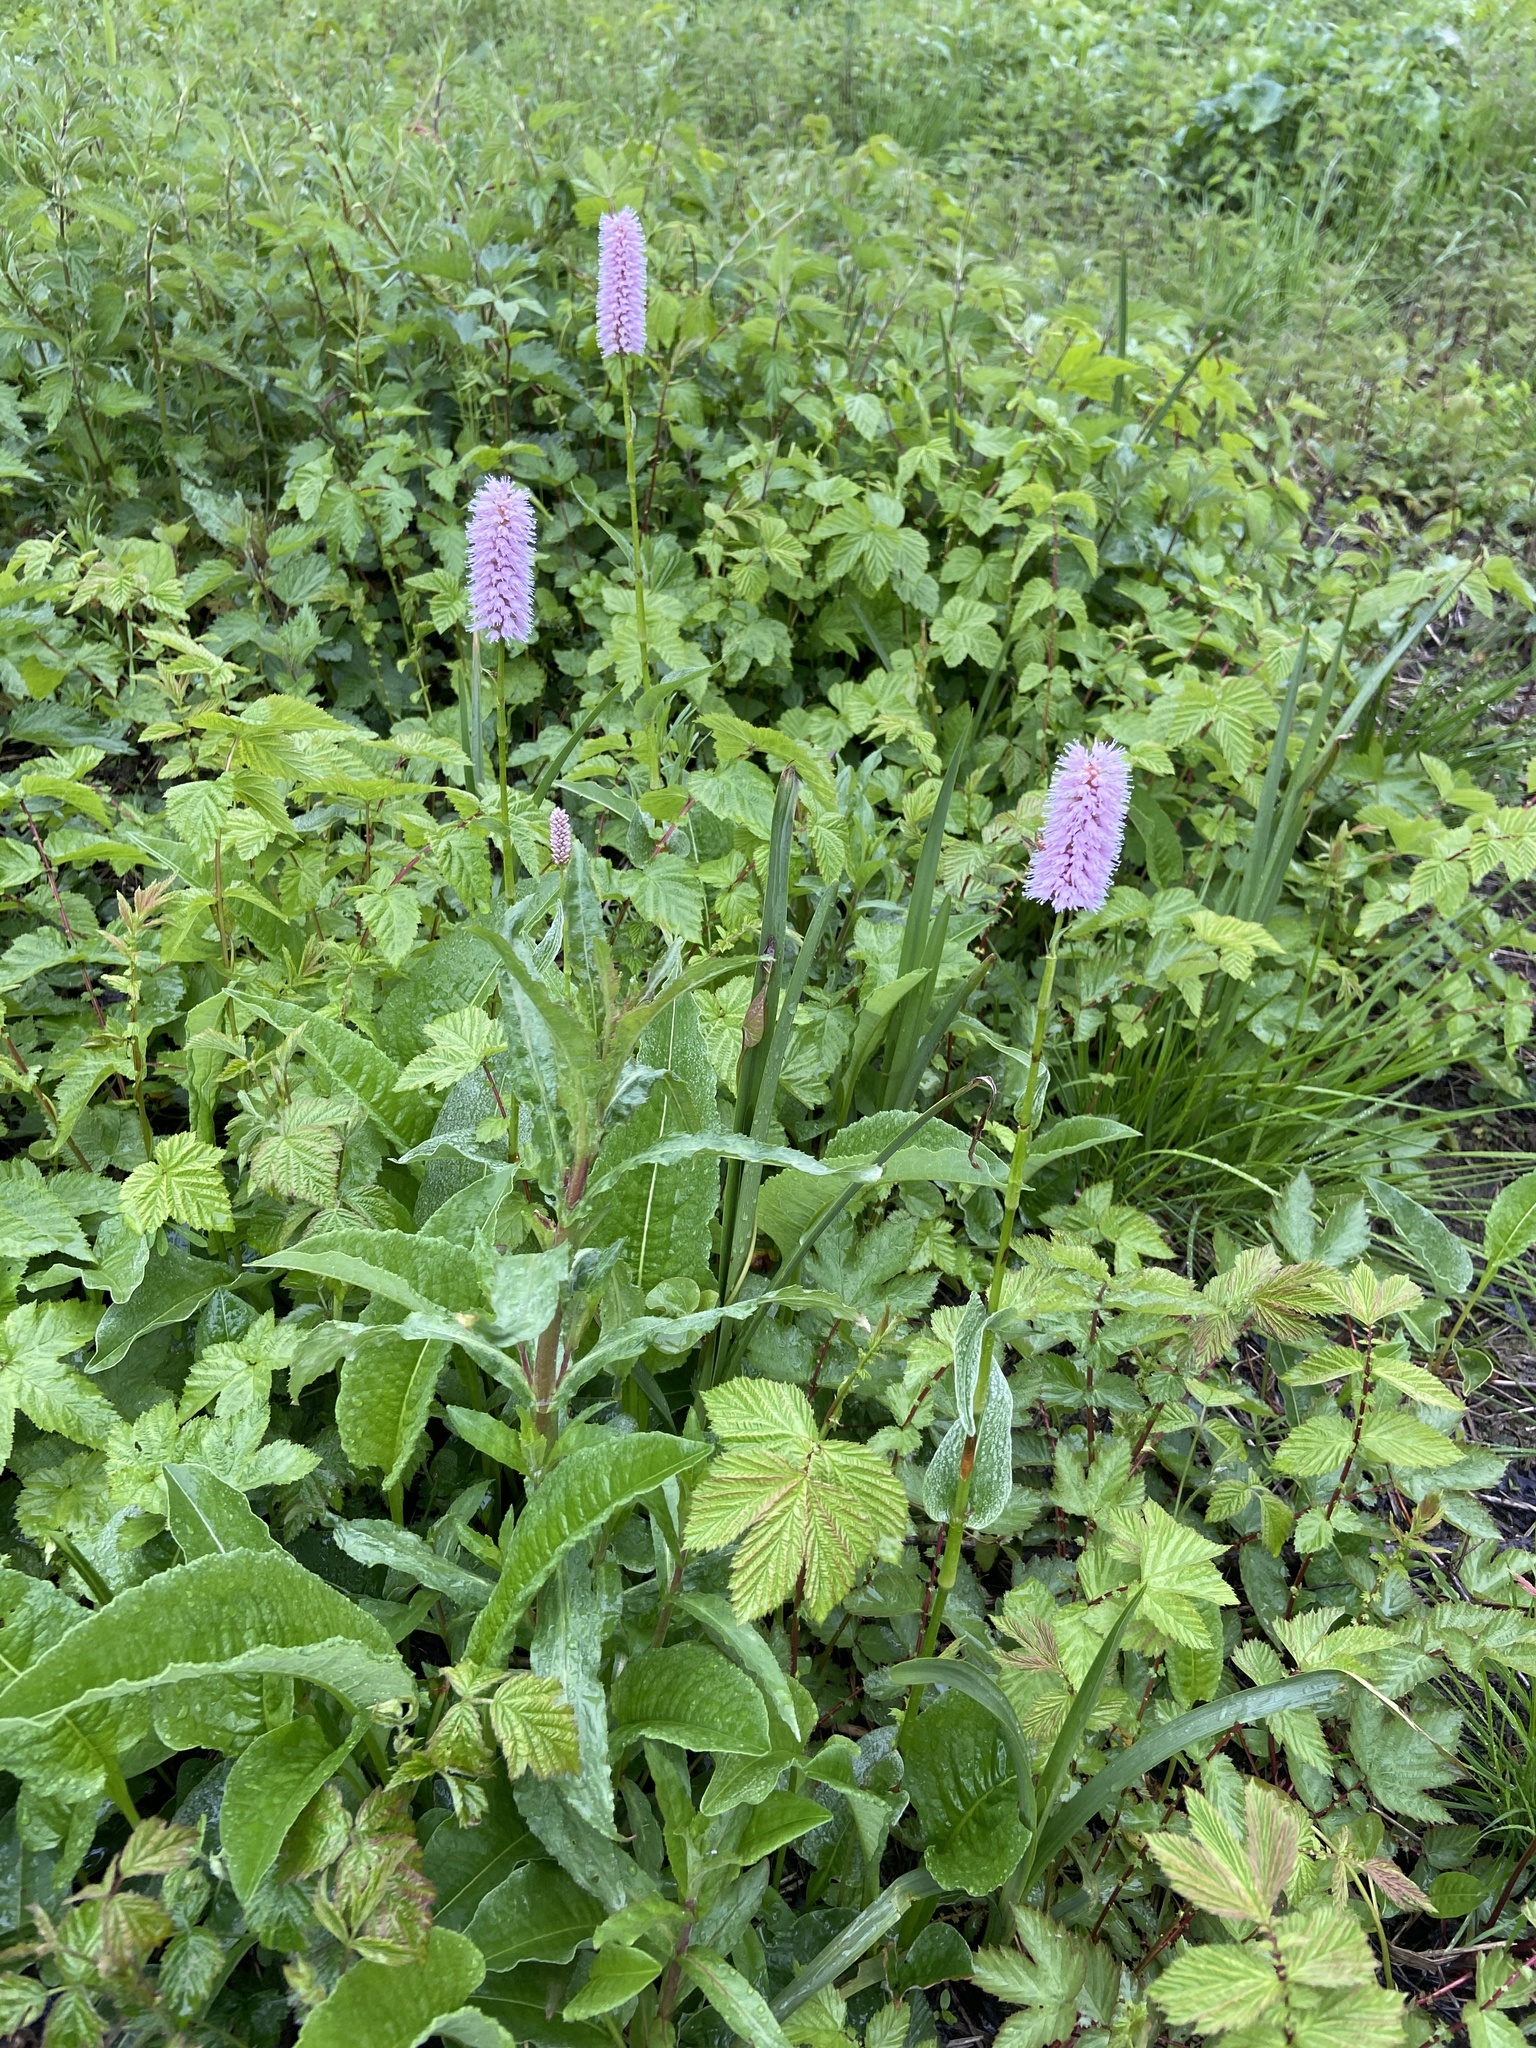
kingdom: Plantae
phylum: Tracheophyta
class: Magnoliopsida
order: Caryophyllales
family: Polygonaceae
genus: Bistorta
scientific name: Bistorta officinalis
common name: Common bistort
